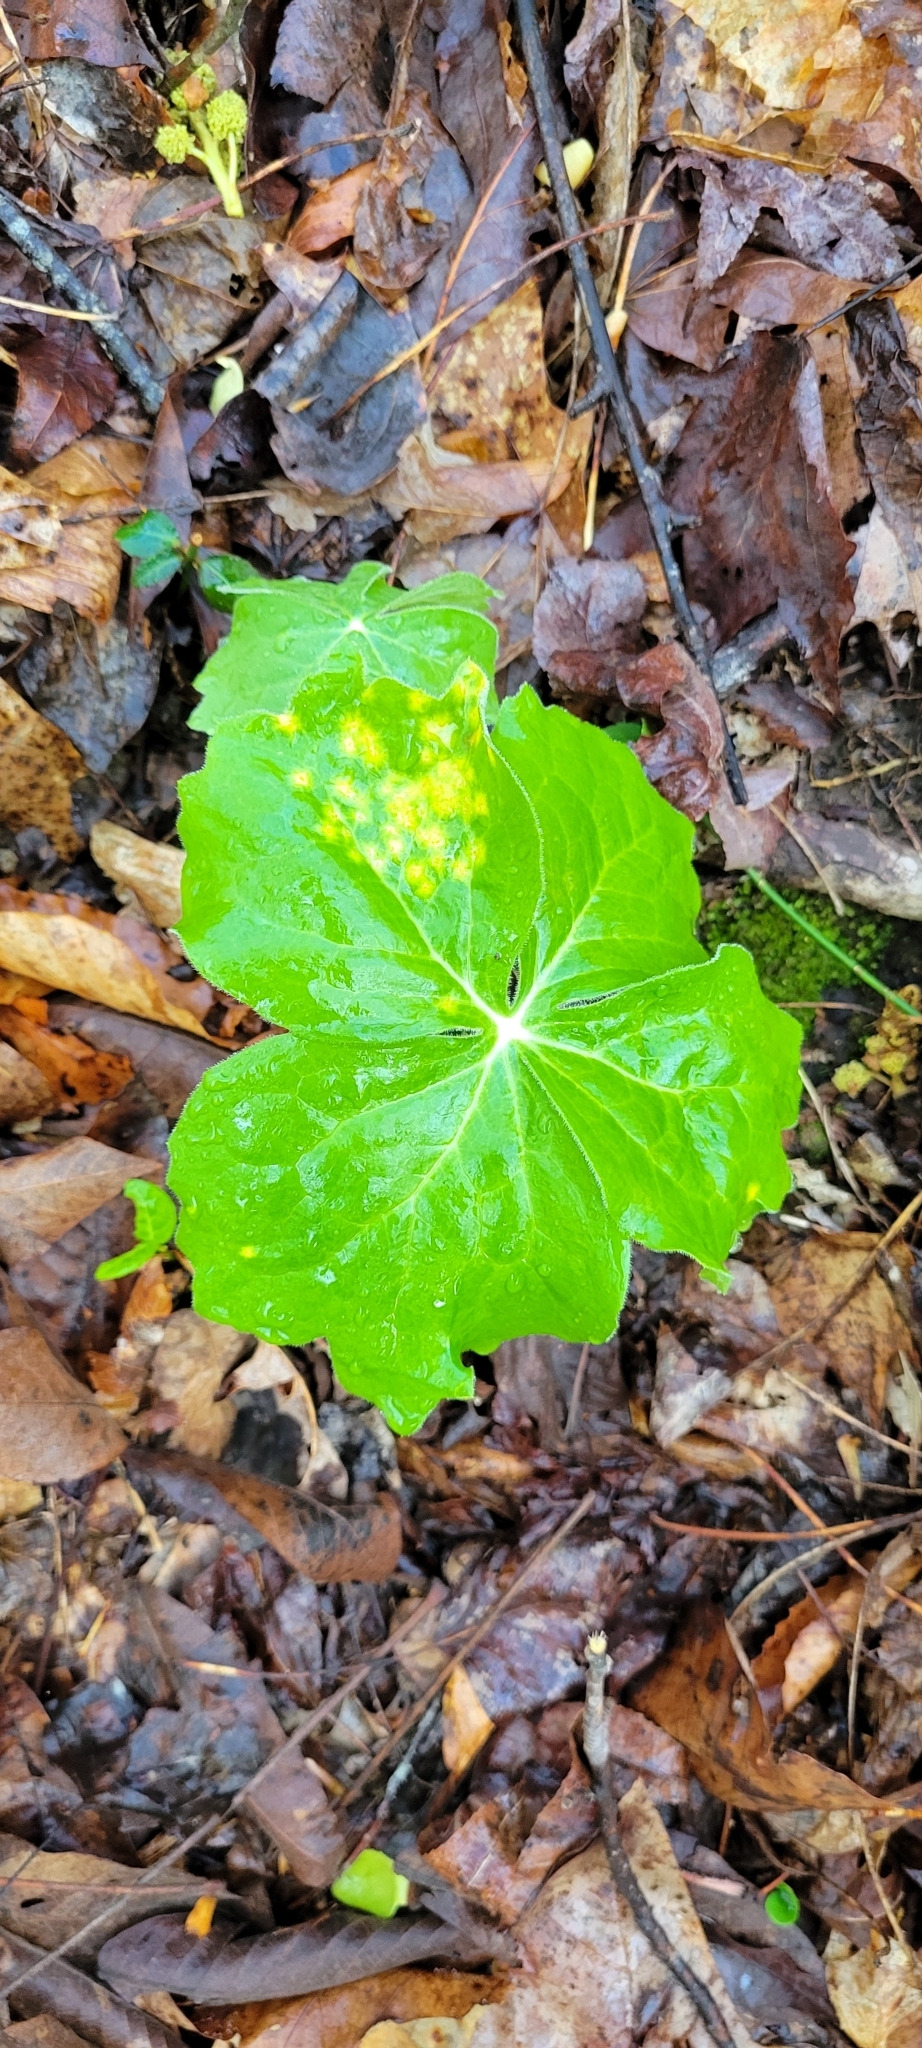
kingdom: Fungi
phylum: Basidiomycota
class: Pucciniomycetes
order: Pucciniales
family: Pucciniaceae
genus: Puccinia
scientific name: Puccinia podophylli
